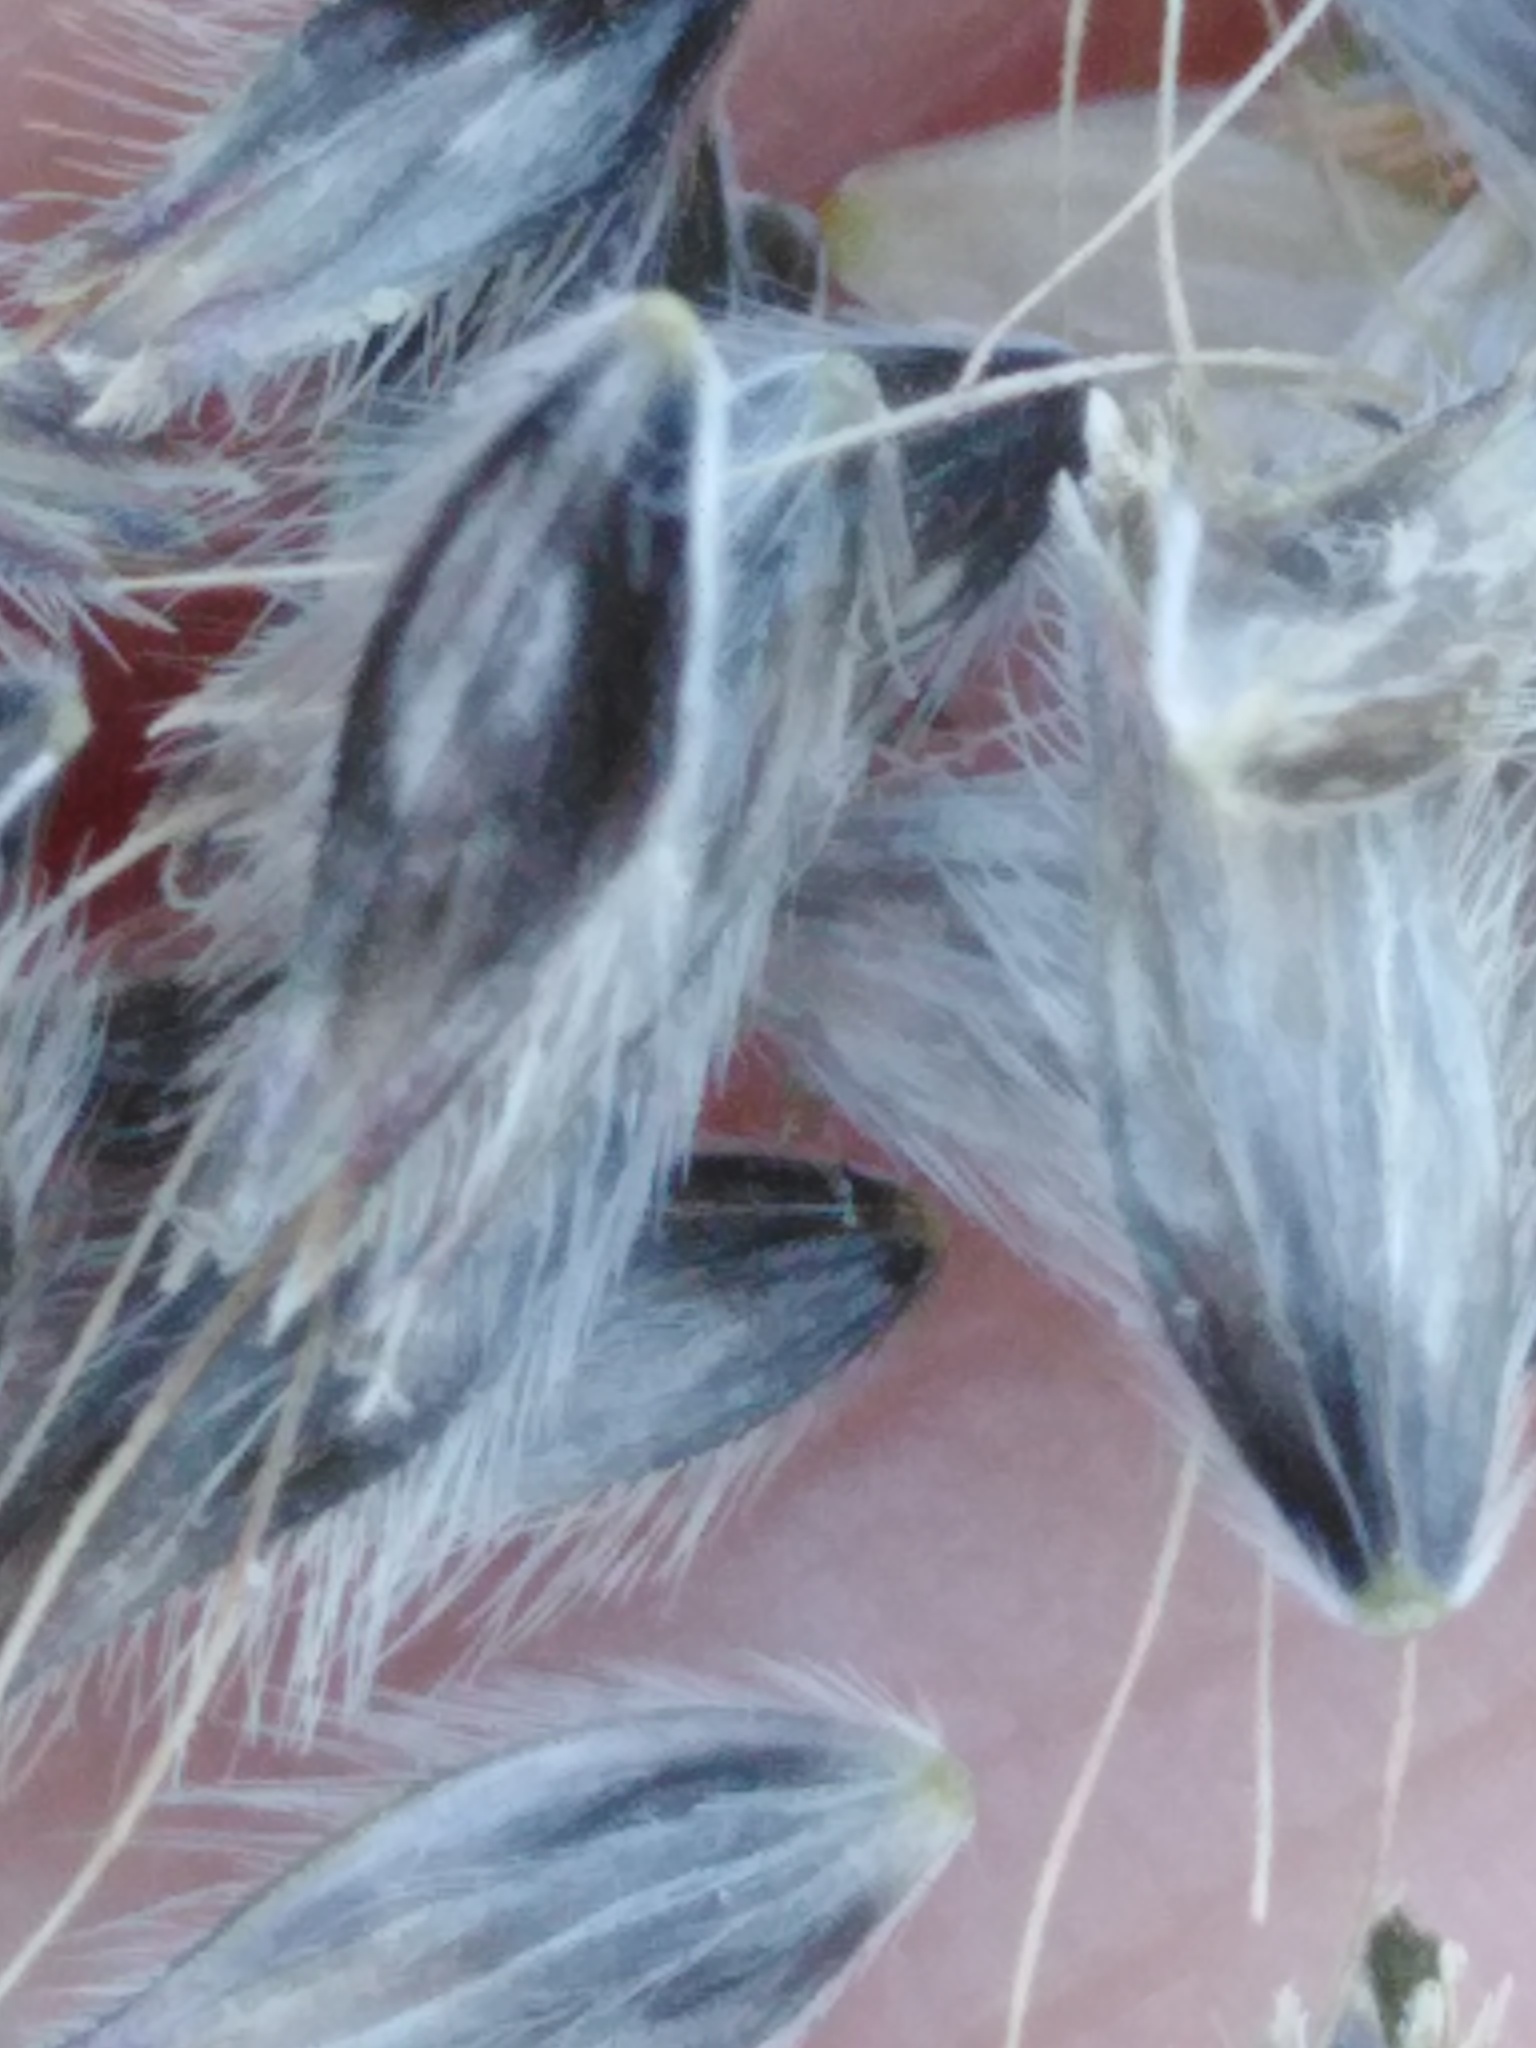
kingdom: Plantae
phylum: Tracheophyta
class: Liliopsida
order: Poales
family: Poaceae
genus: Alopecurus
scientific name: Alopecurus arundinaceus
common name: Creeping meadow foxtail
